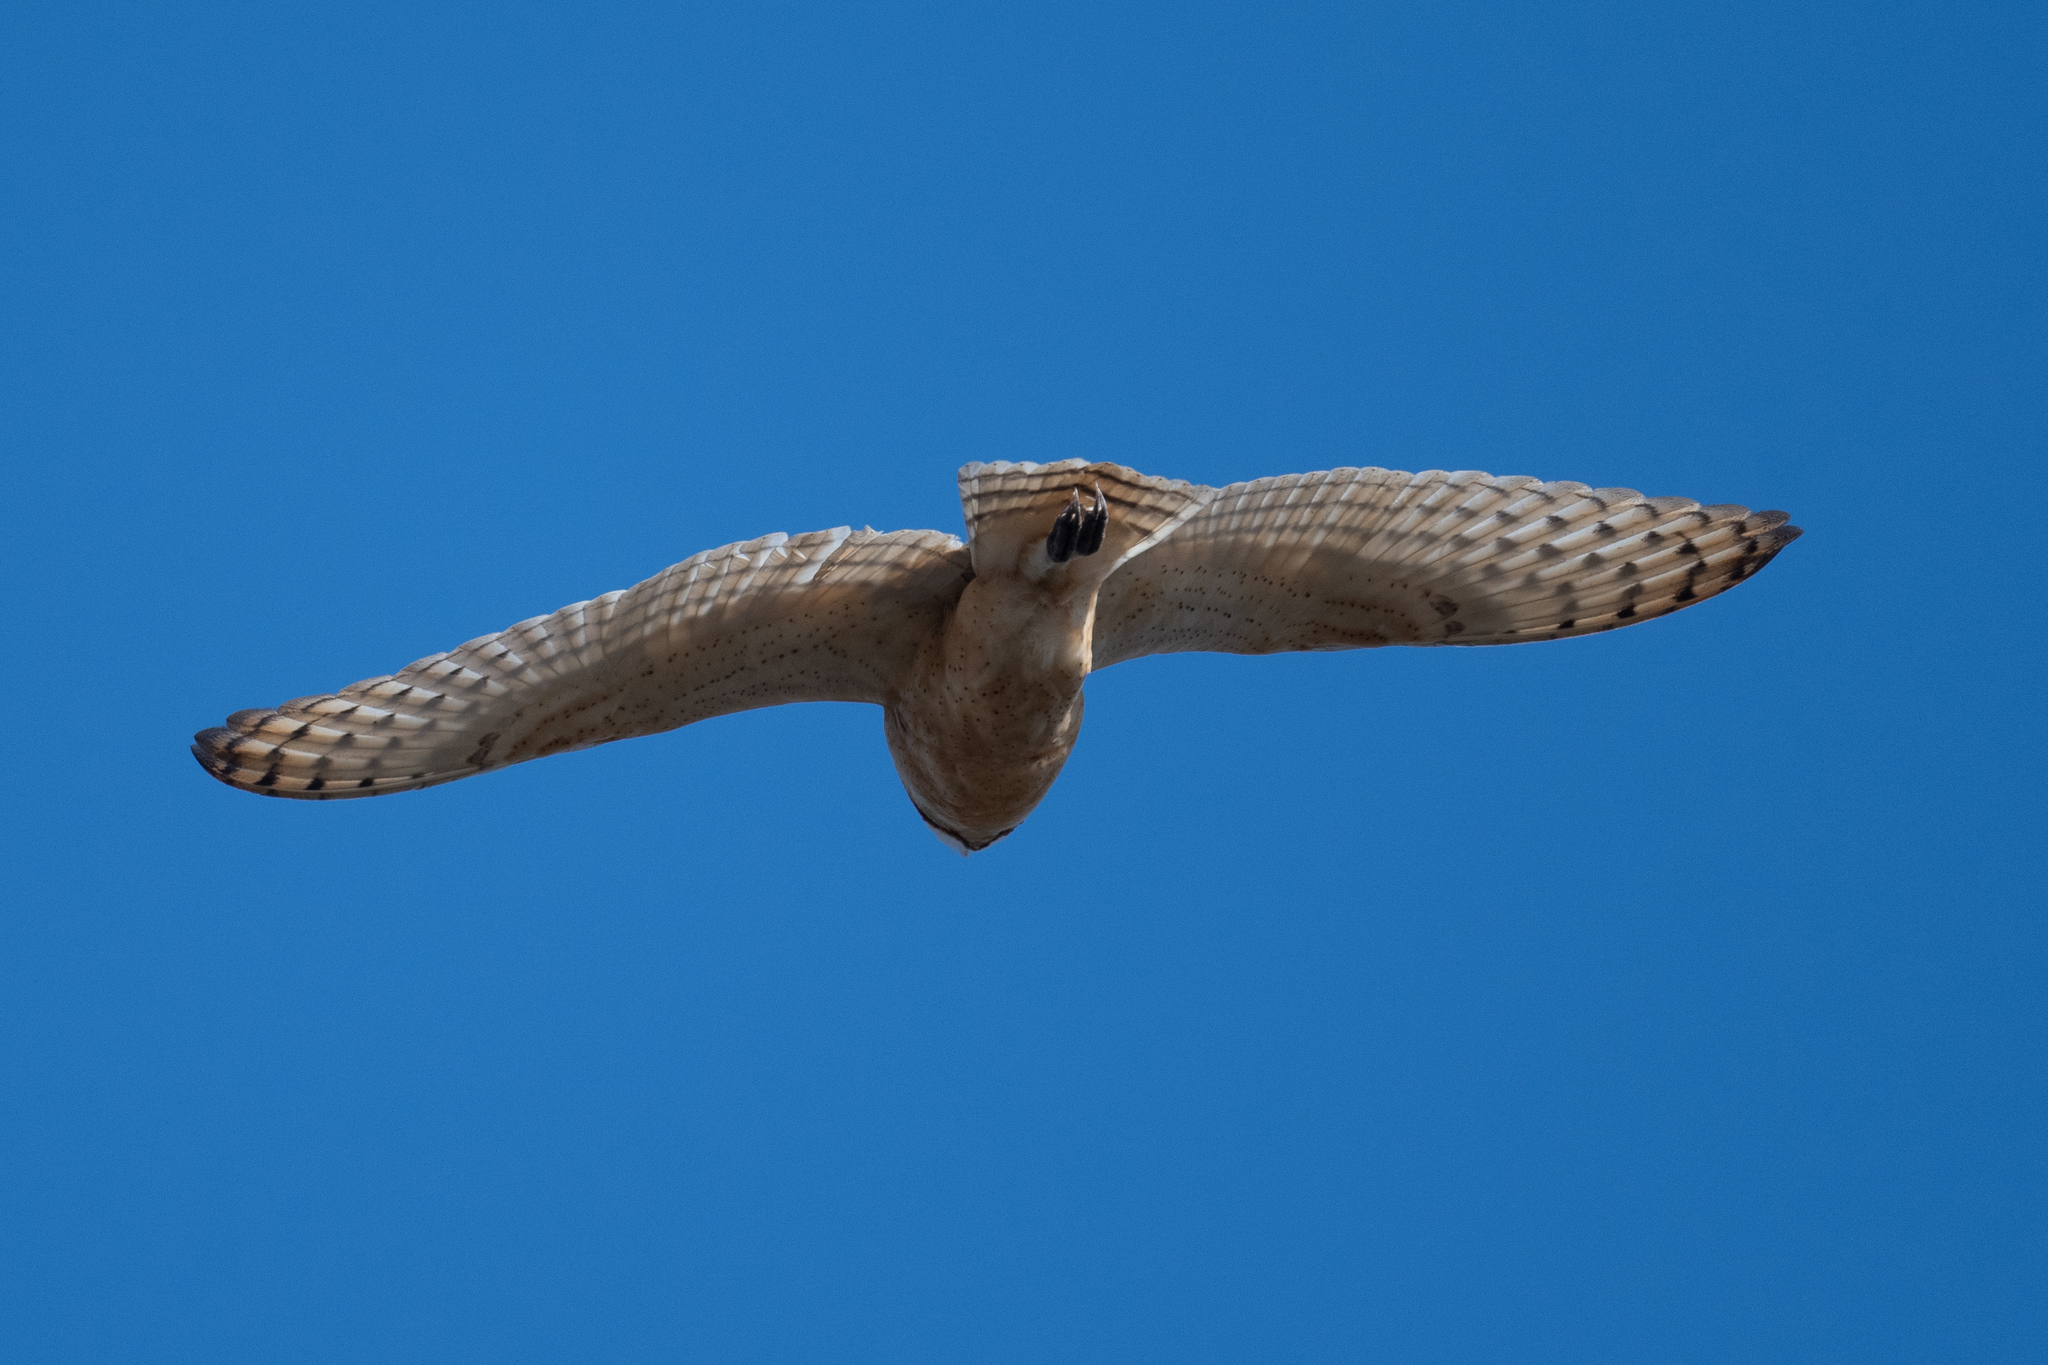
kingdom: Animalia
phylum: Chordata
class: Aves
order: Strigiformes
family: Tytonidae
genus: Tyto
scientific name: Tyto alba
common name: Barn owl
